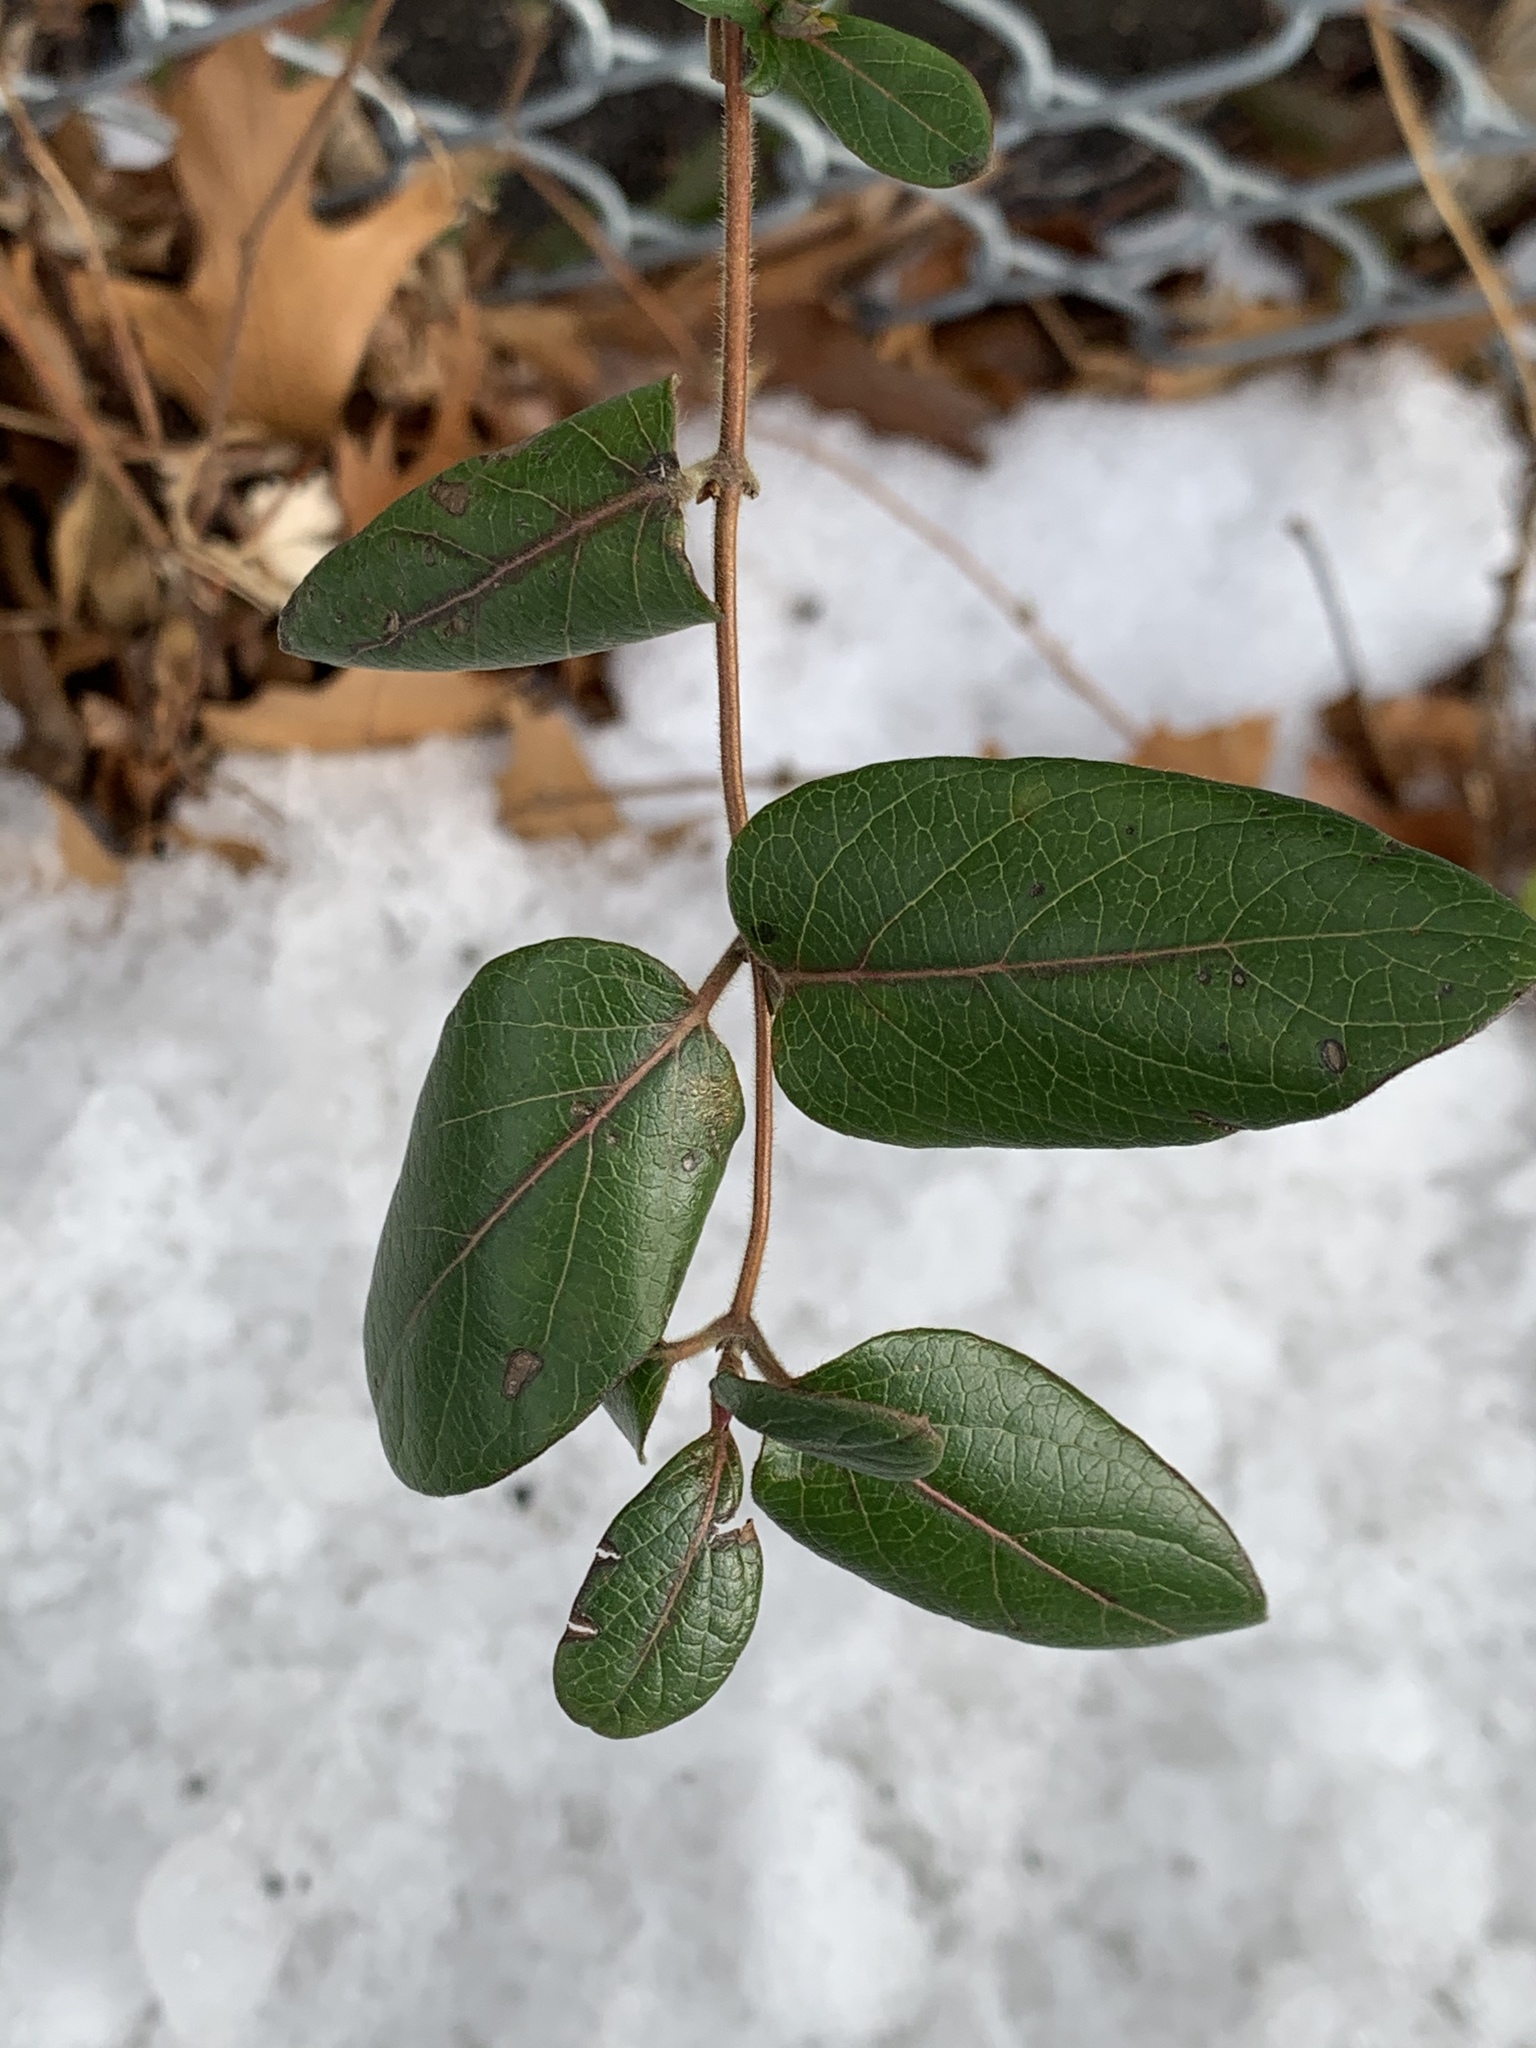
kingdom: Plantae
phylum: Tracheophyta
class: Magnoliopsida
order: Dipsacales
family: Caprifoliaceae
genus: Lonicera
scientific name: Lonicera japonica
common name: Japanese honeysuckle
